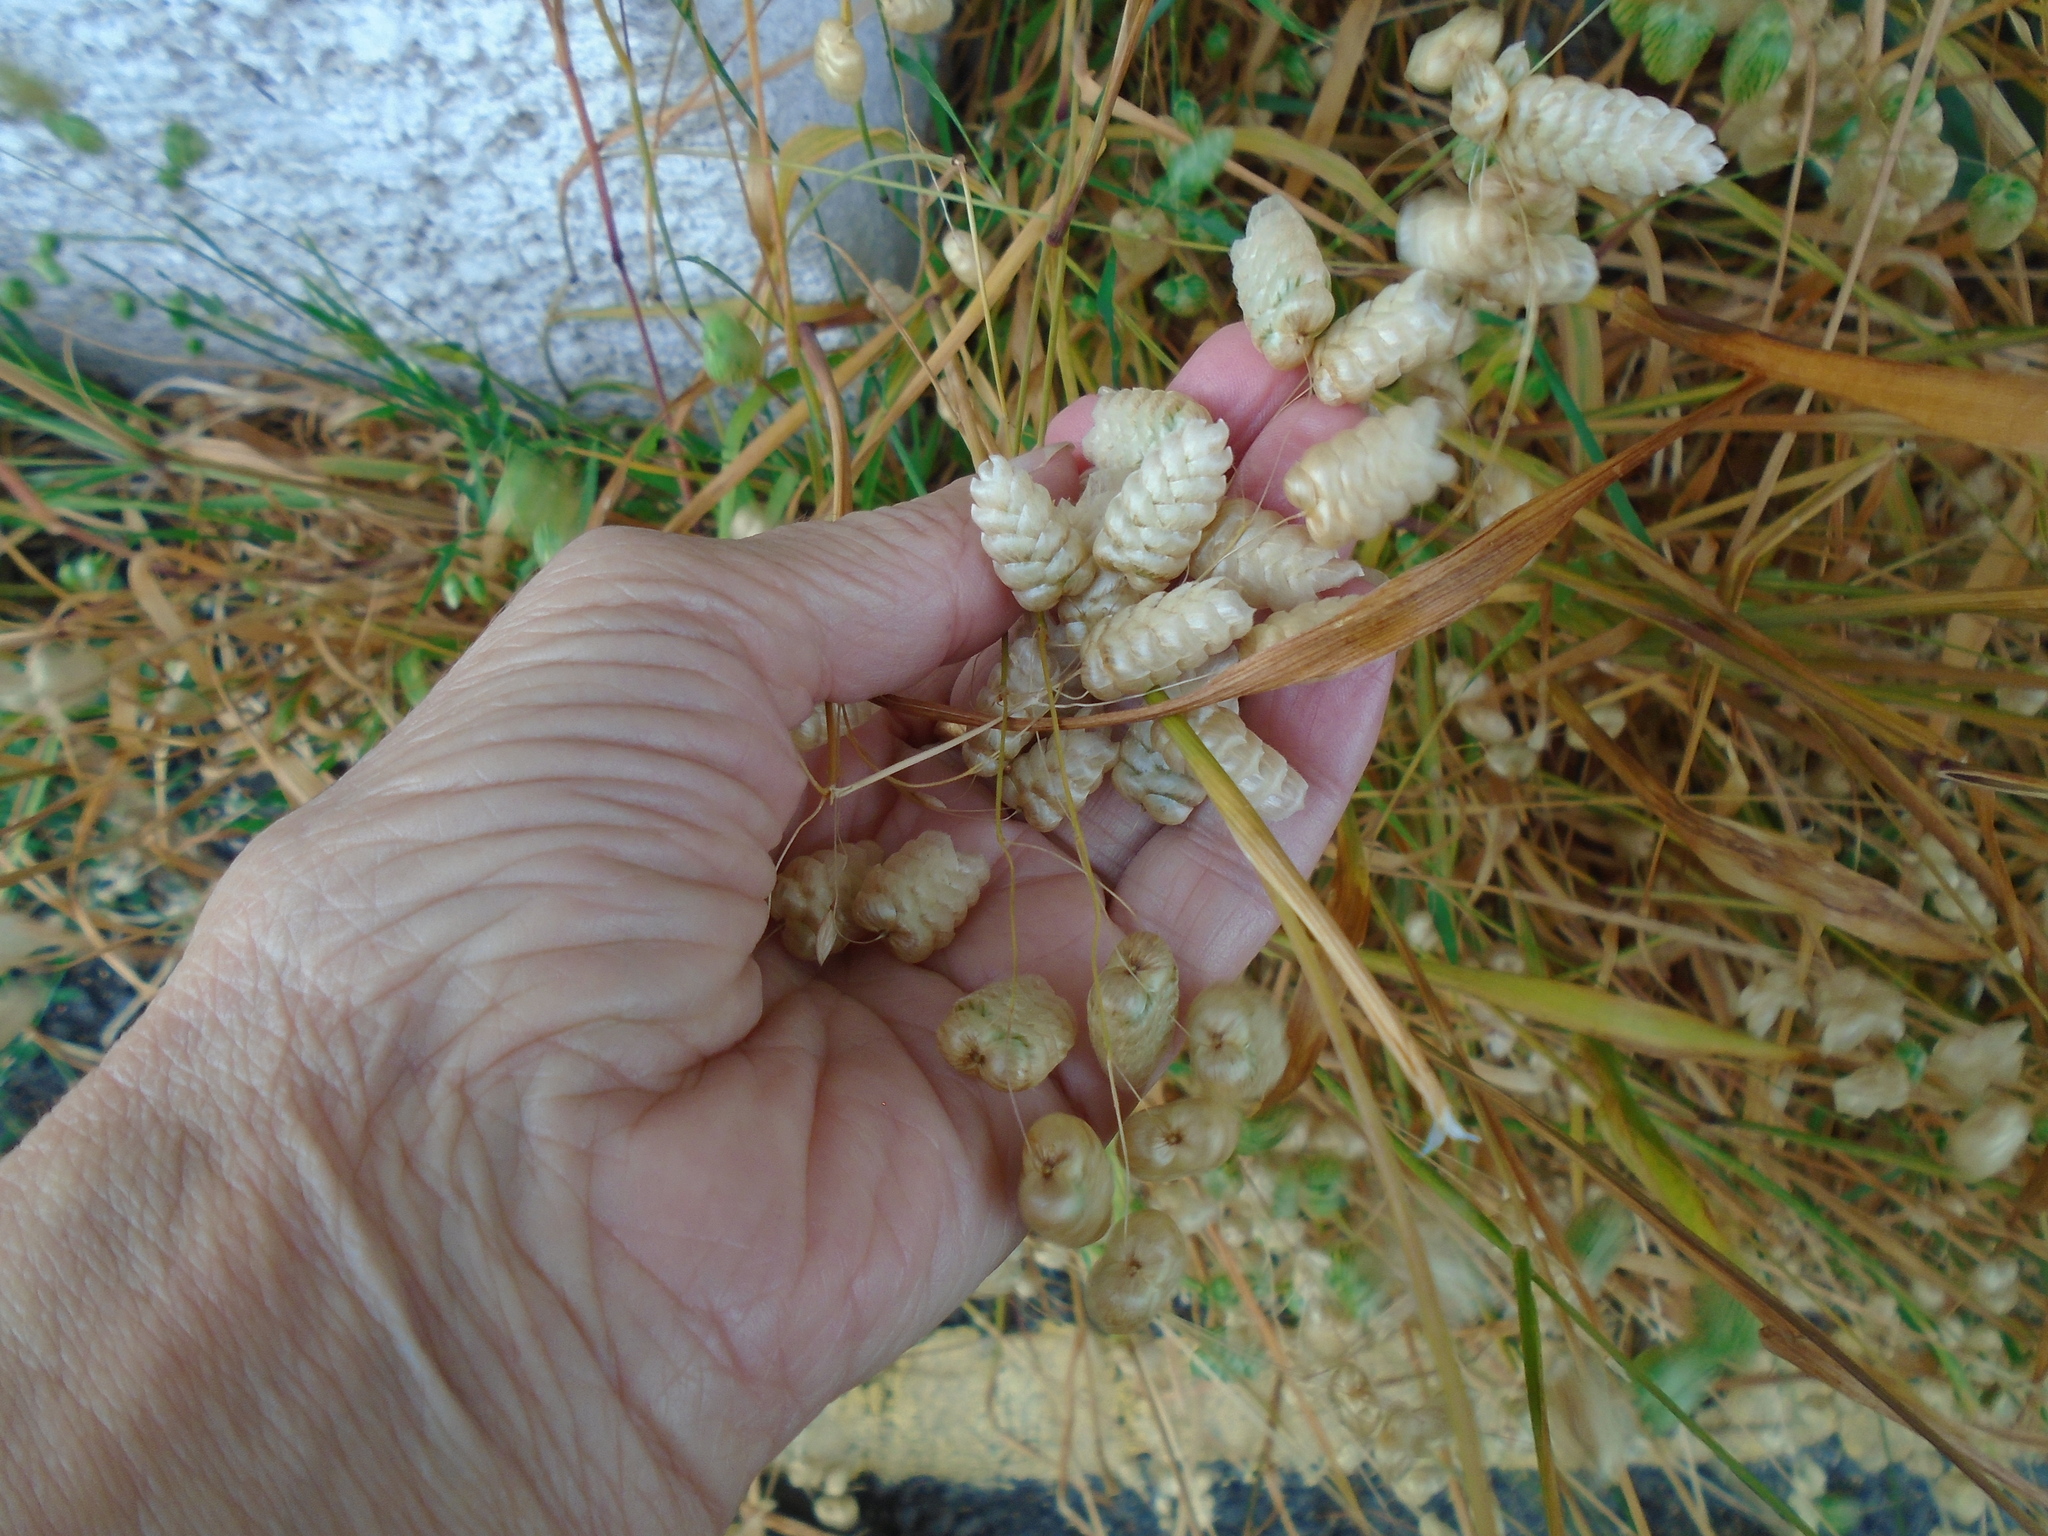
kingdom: Plantae
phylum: Tracheophyta
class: Liliopsida
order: Poales
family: Poaceae
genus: Briza
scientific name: Briza maxima
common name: Big quakinggrass
